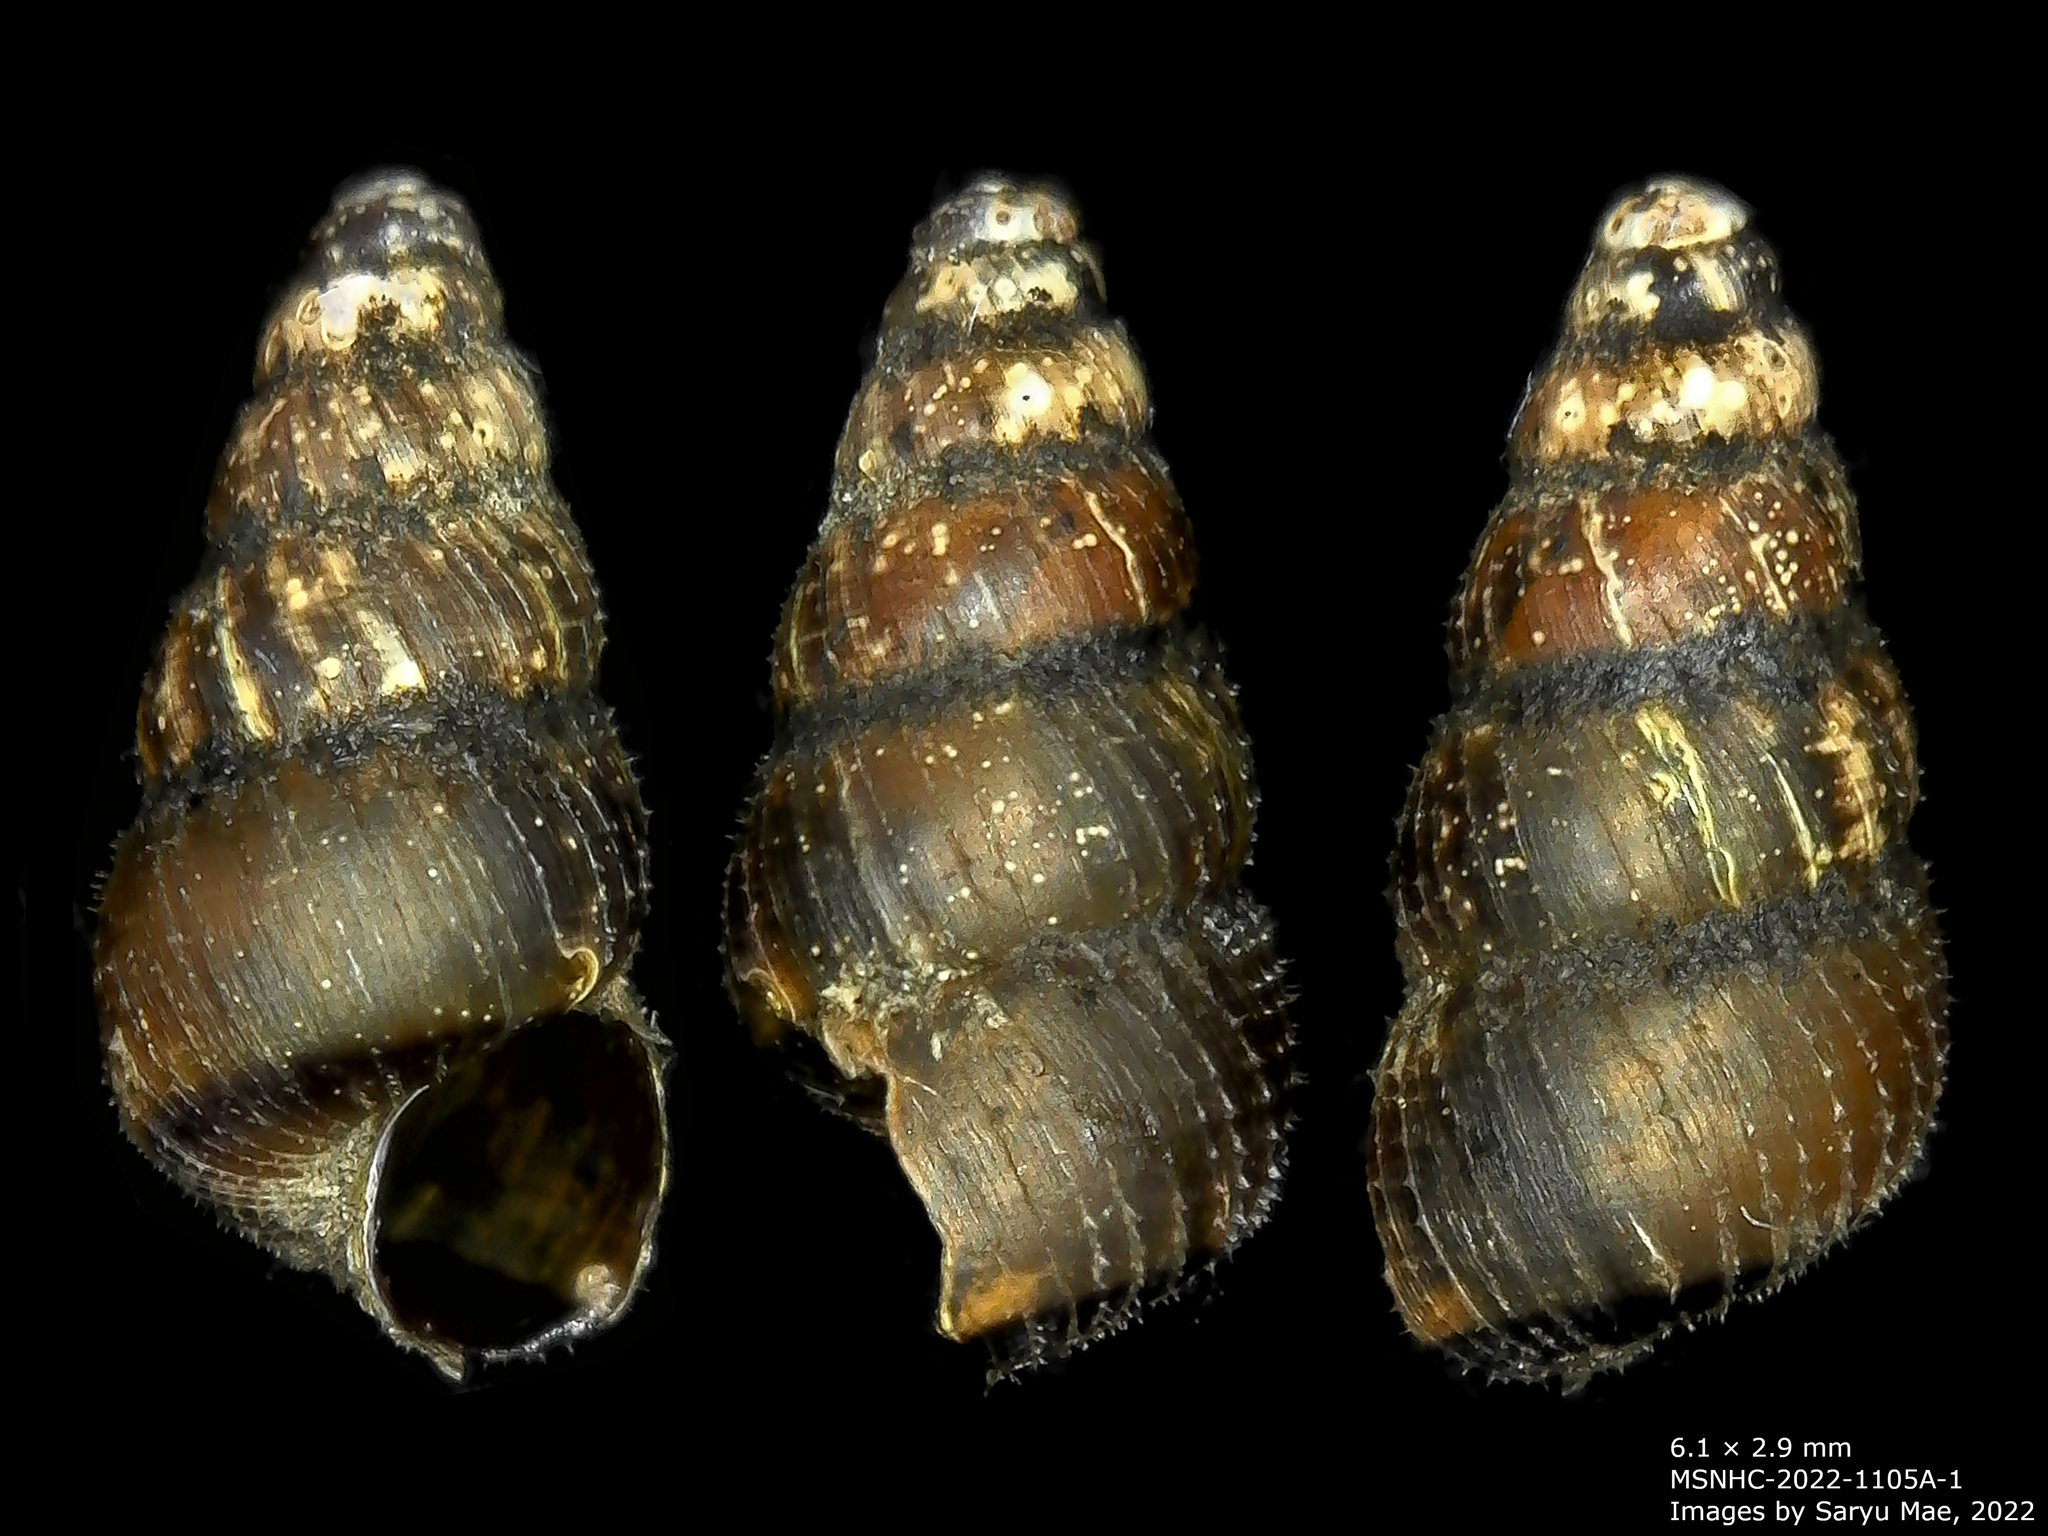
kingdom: Animalia
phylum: Mollusca
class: Gastropoda
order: Architaenioglossa
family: Pupinidae
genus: Liarea
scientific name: Liarea turriculata
